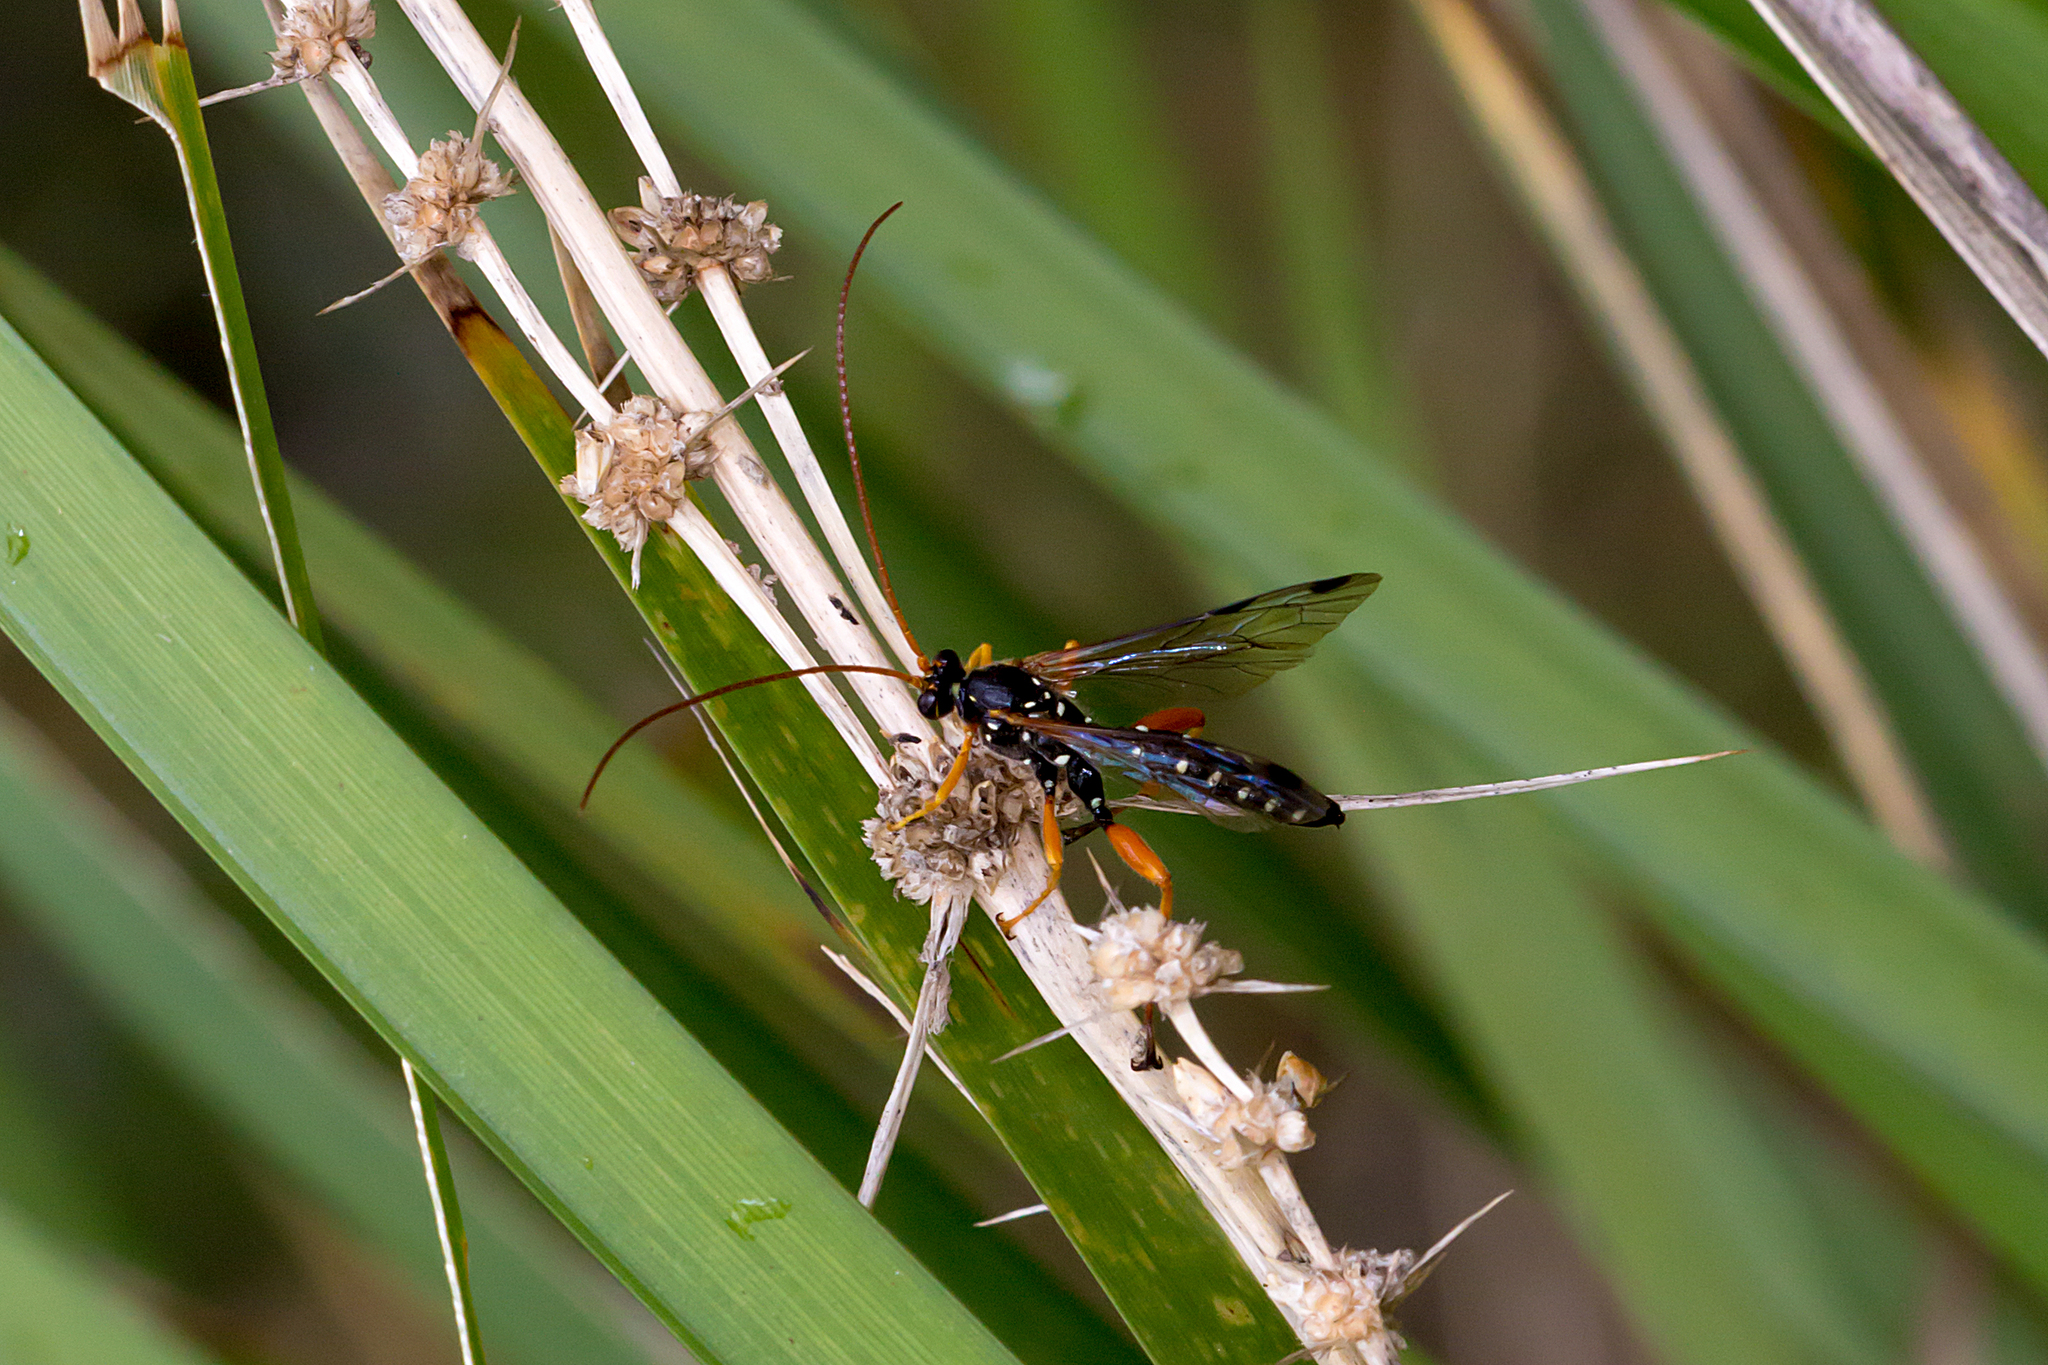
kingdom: Animalia
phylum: Arthropoda
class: Insecta
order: Hymenoptera
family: Ichneumonidae
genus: Echthromorpha
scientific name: Echthromorpha intricatoria
